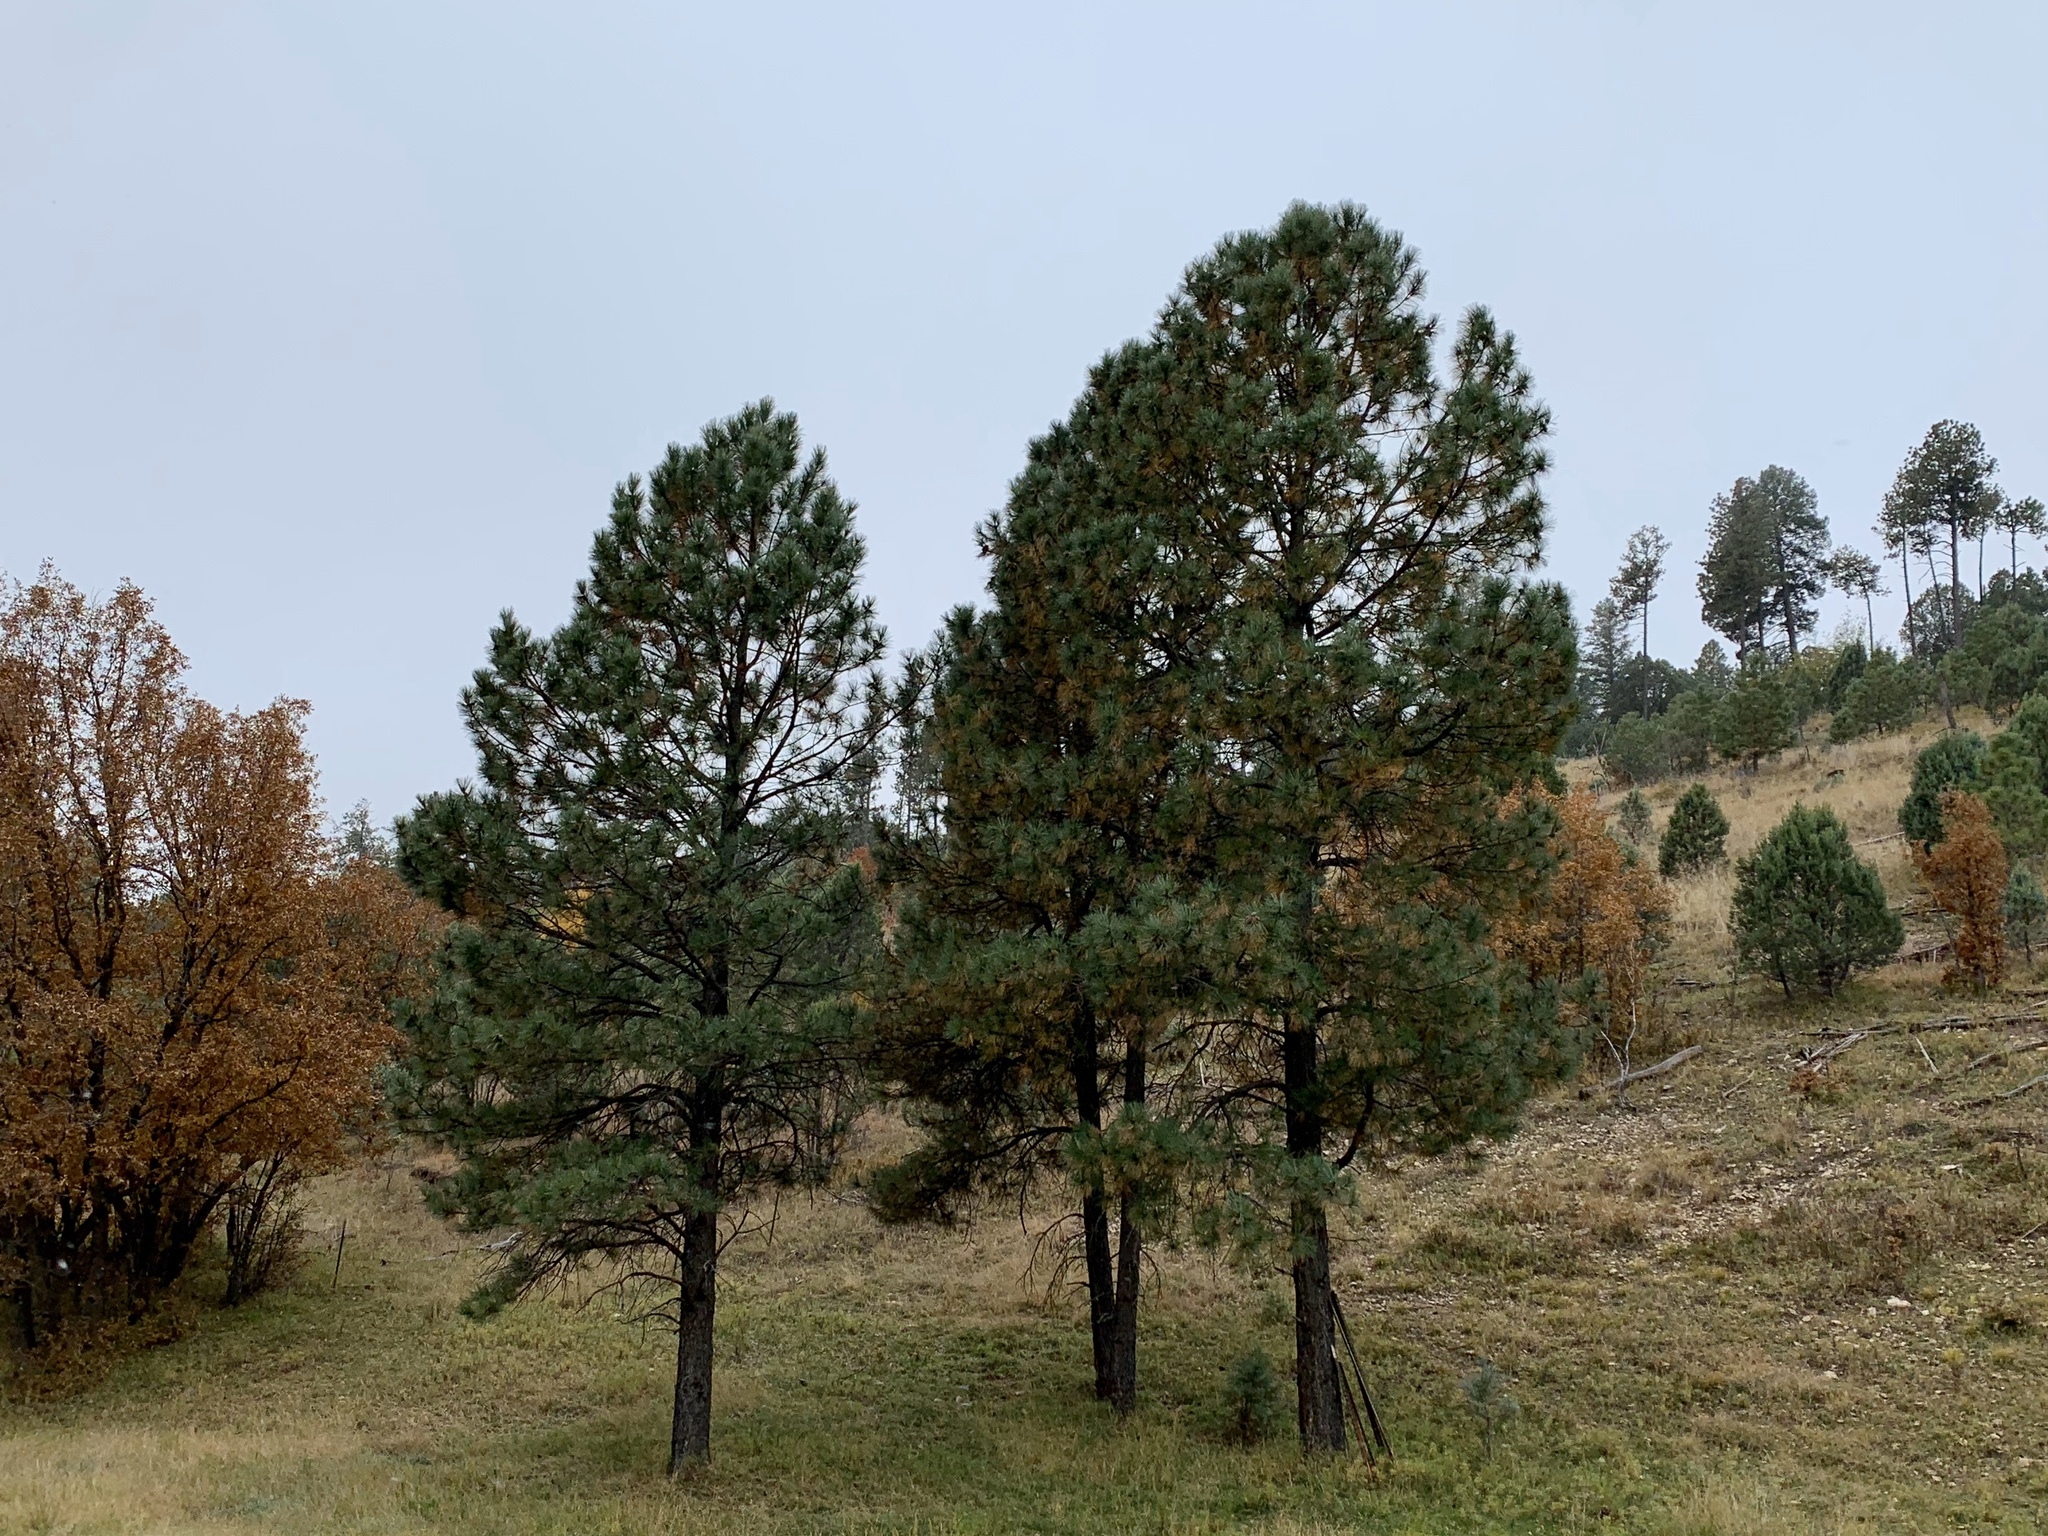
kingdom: Plantae
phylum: Tracheophyta
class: Pinopsida
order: Pinales
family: Pinaceae
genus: Pinus
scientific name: Pinus ponderosa
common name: Western yellow-pine
